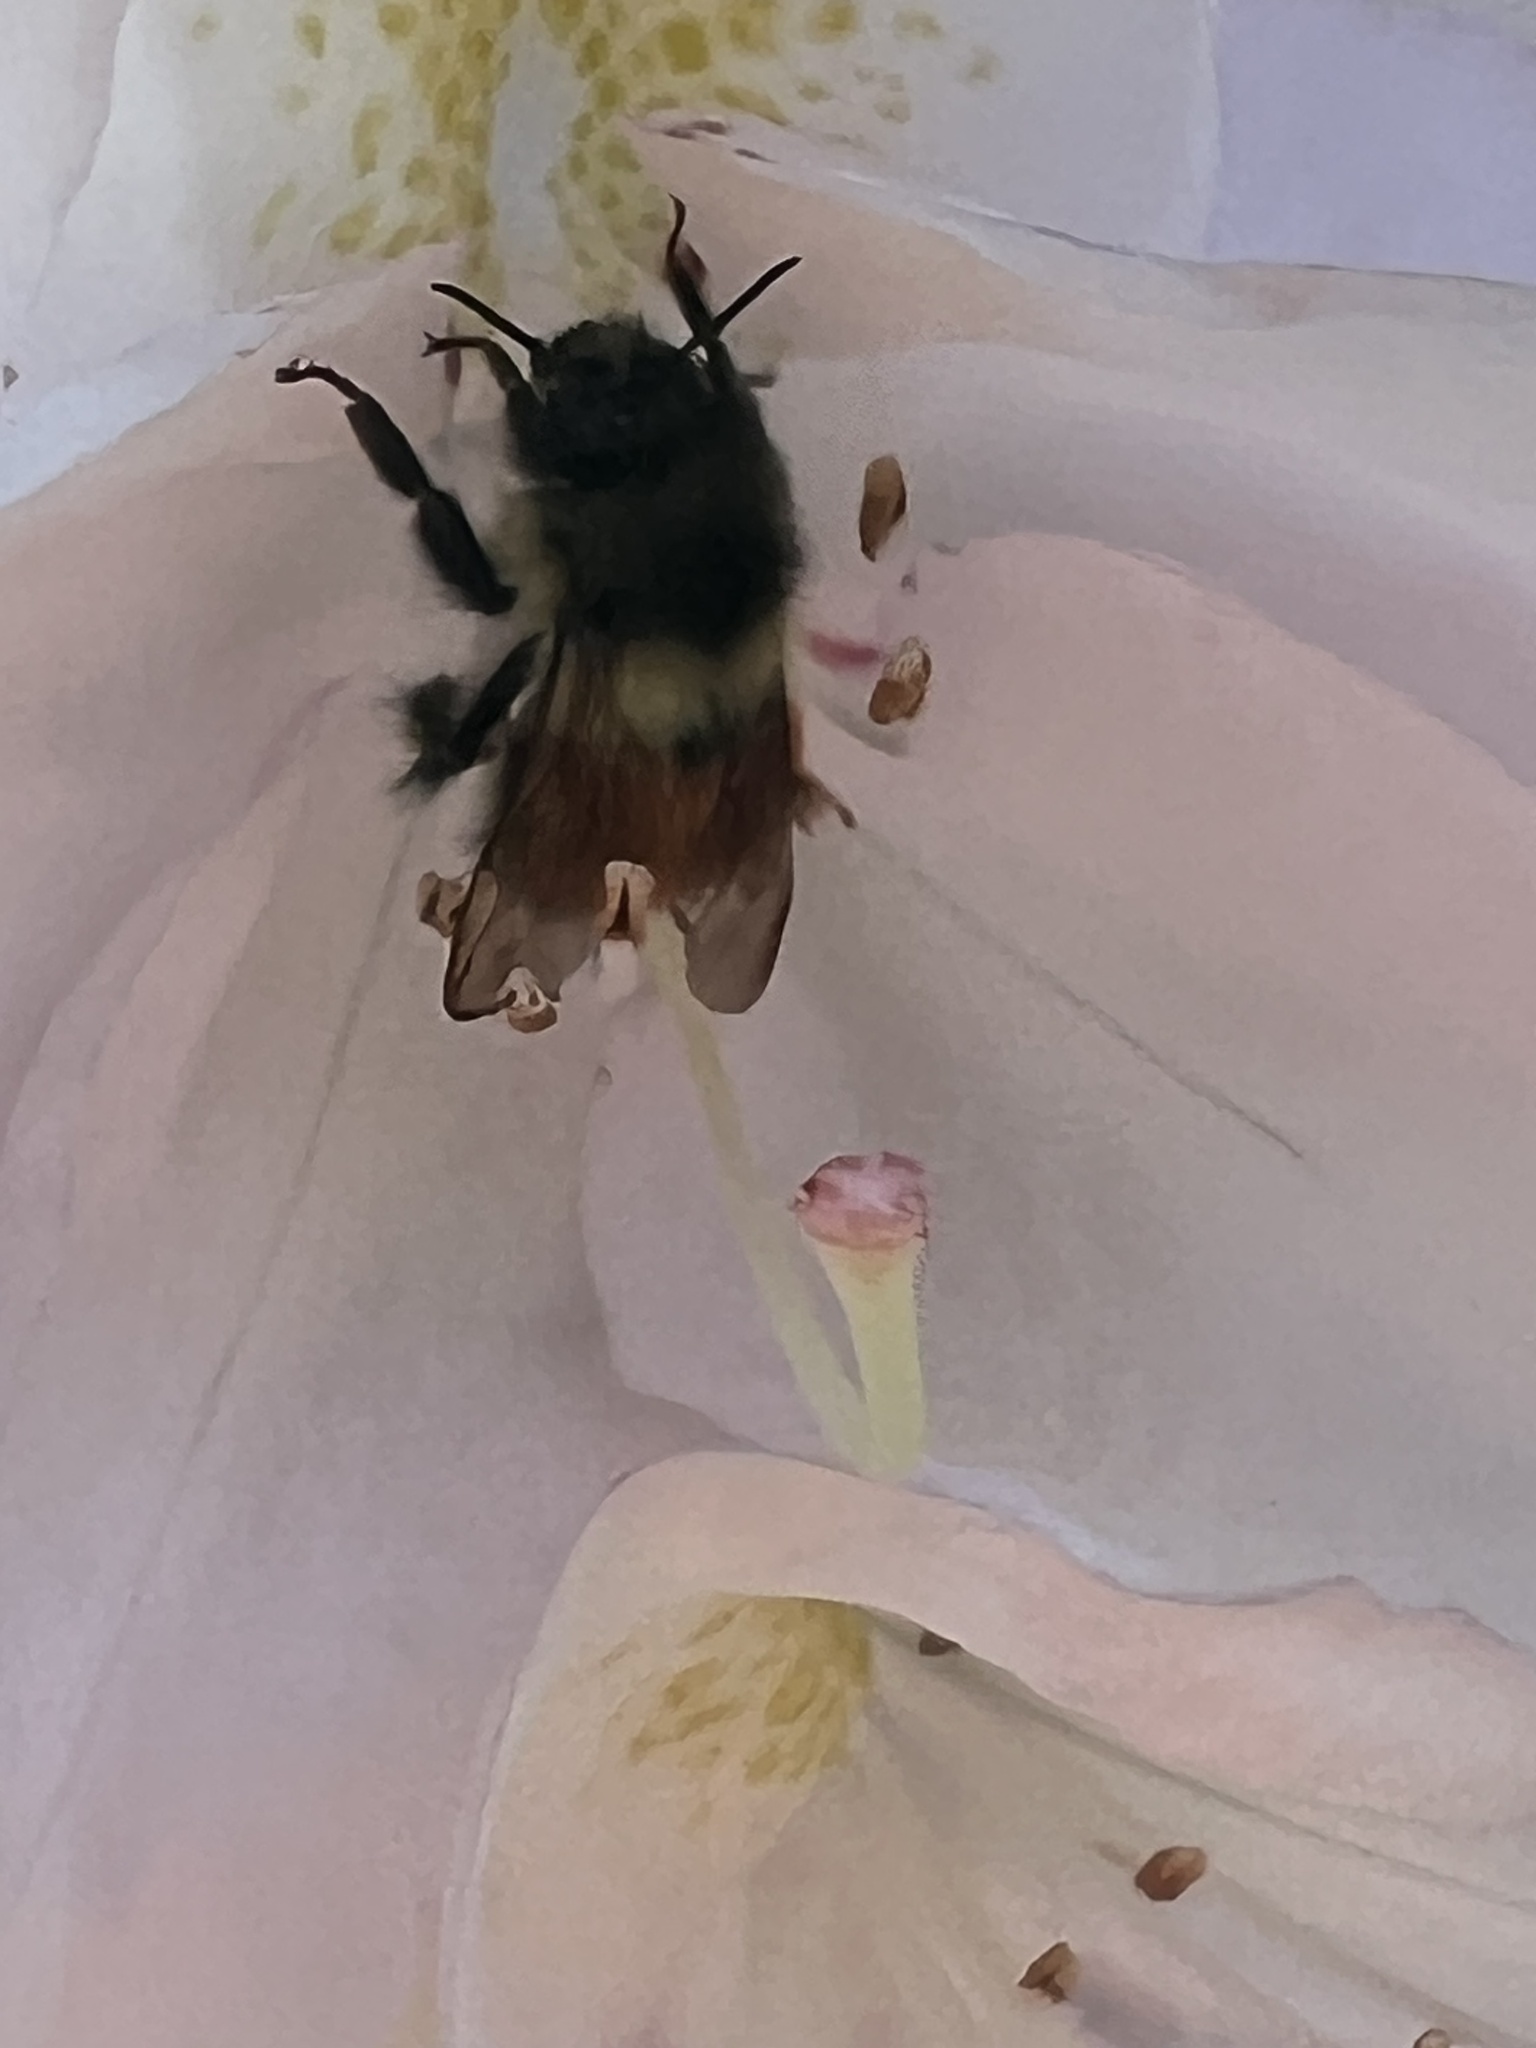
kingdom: Animalia
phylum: Arthropoda
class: Insecta
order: Hymenoptera
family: Apidae
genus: Bombus
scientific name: Bombus melanopygus
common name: Black tail bumble bee
